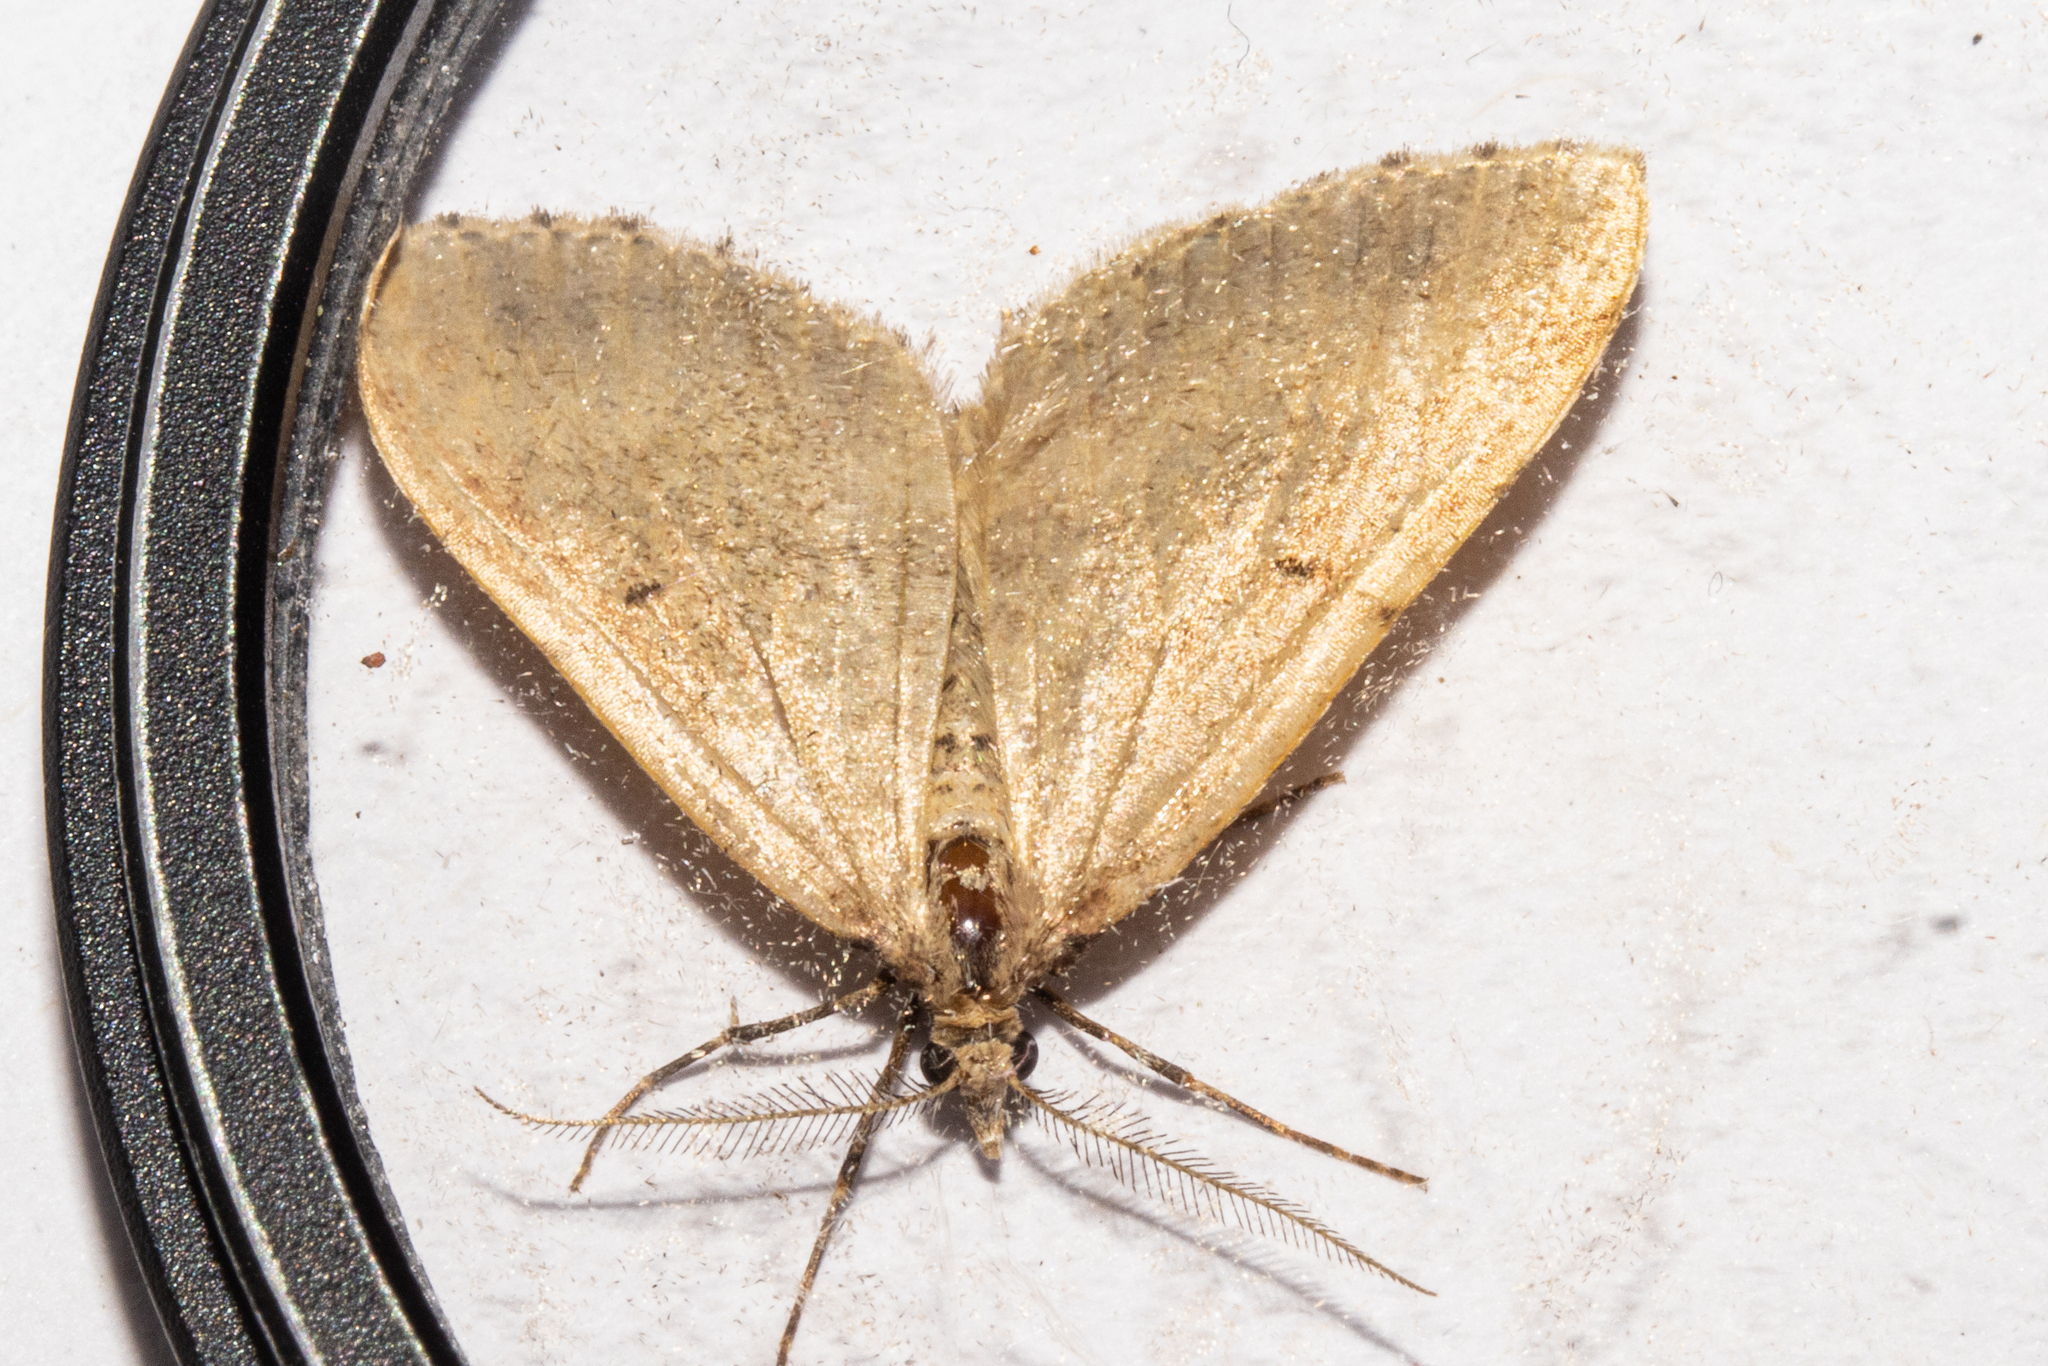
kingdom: Animalia
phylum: Arthropoda
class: Insecta
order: Lepidoptera
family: Geometridae
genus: Asaphodes
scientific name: Asaphodes aegrota
